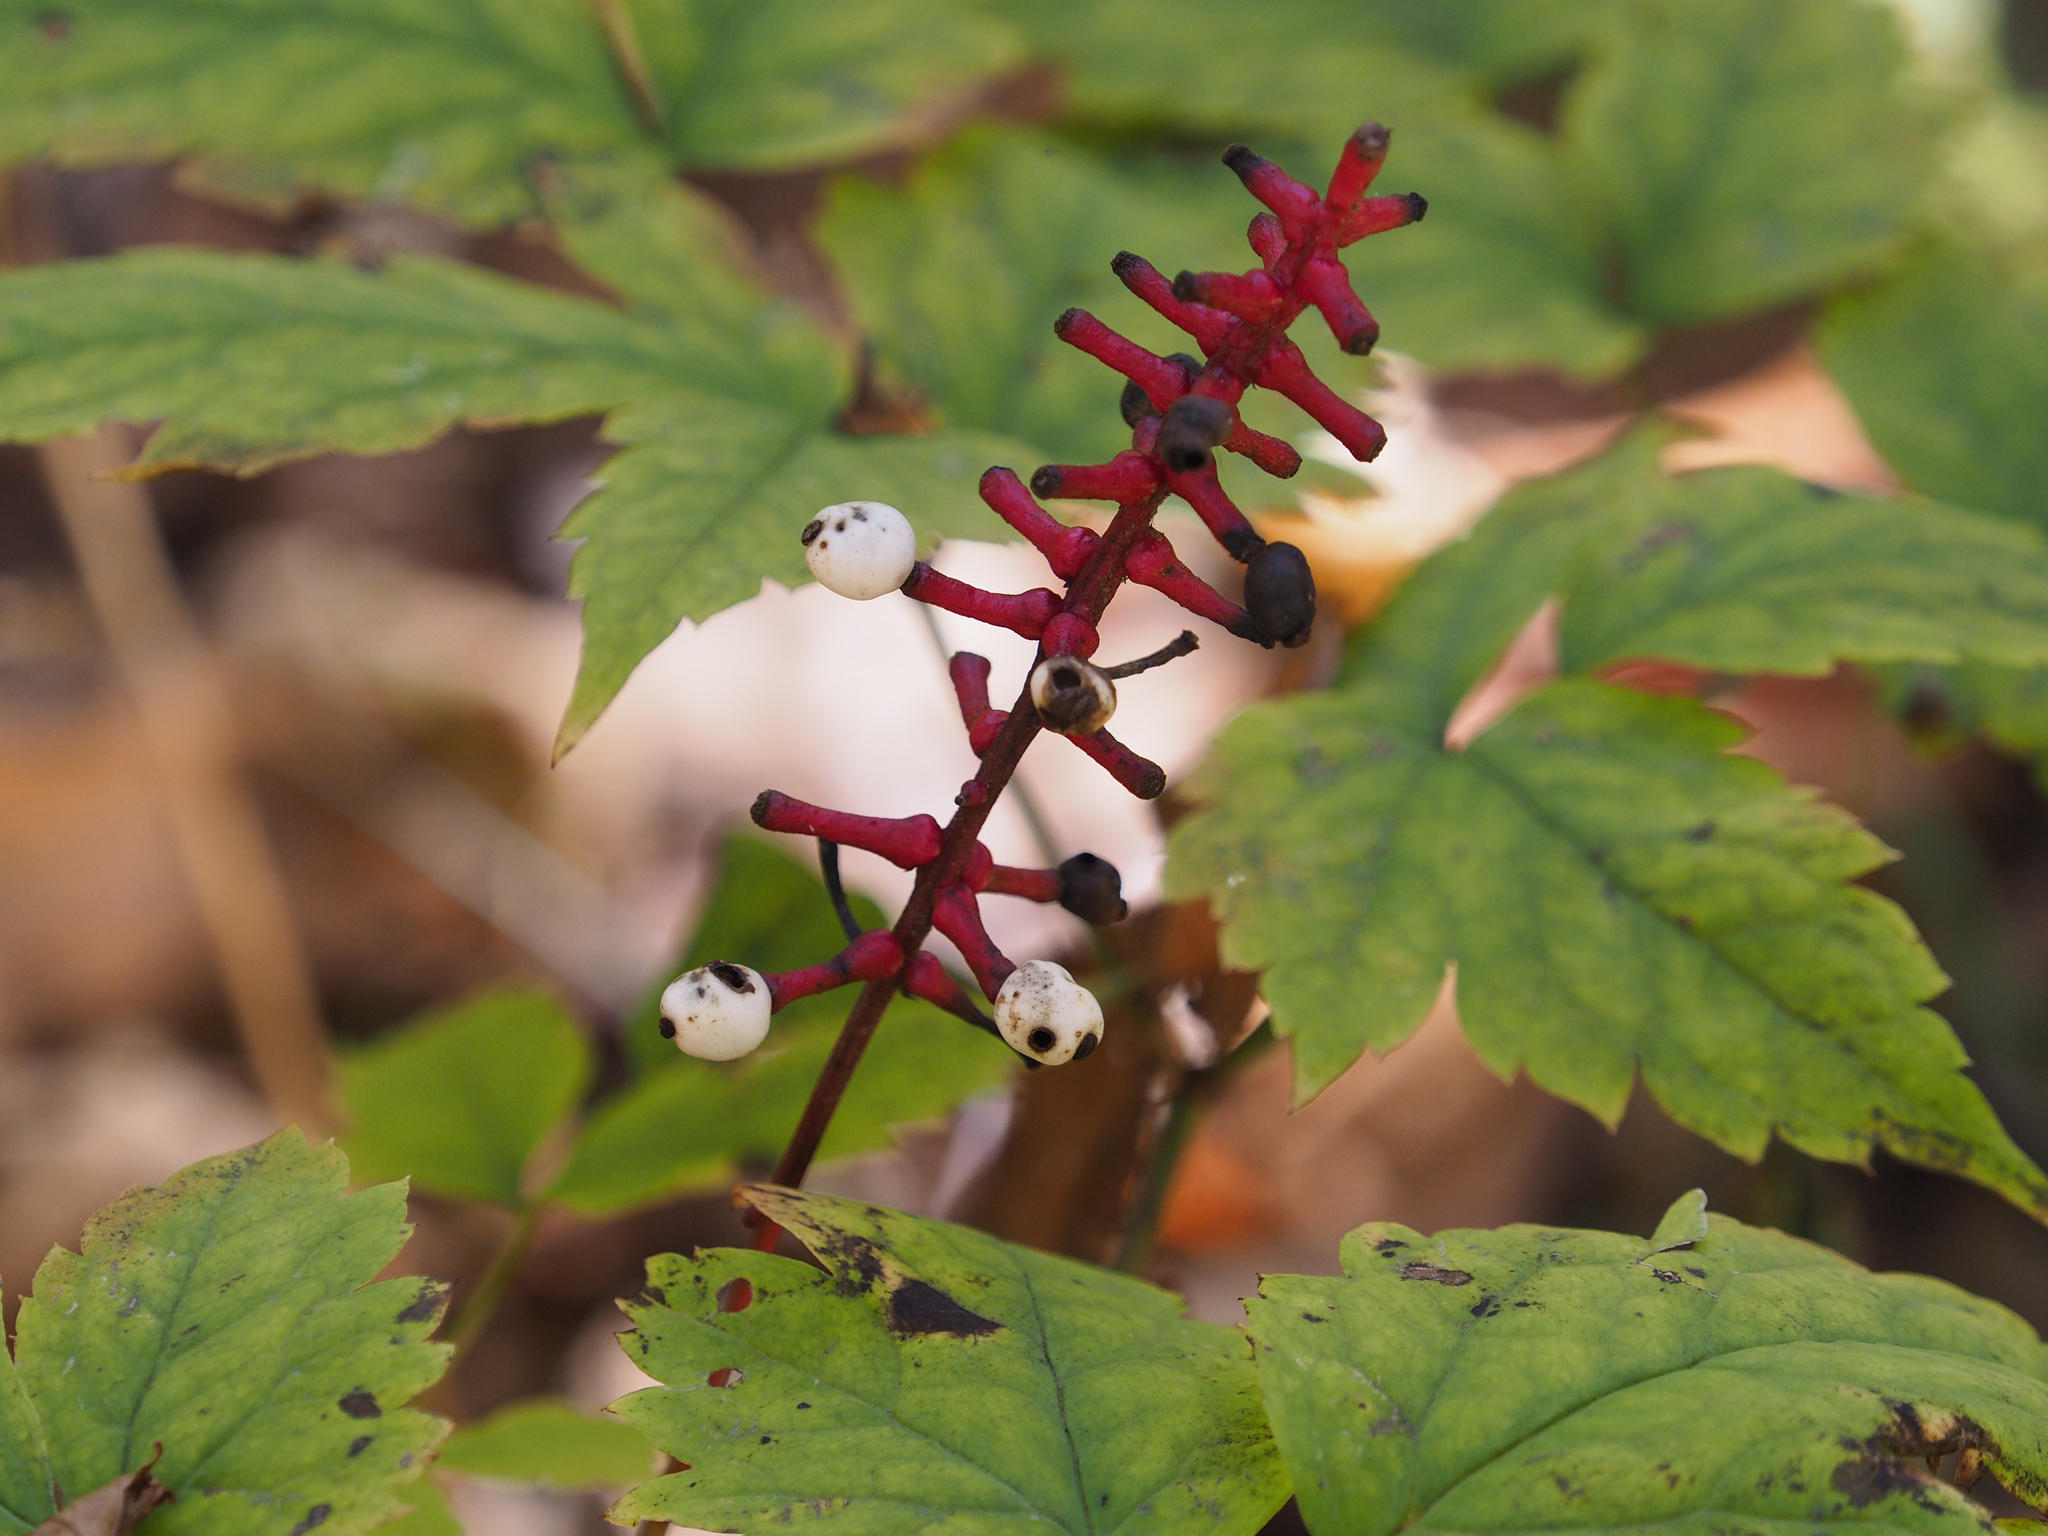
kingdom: Plantae
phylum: Tracheophyta
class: Magnoliopsida
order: Ranunculales
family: Ranunculaceae
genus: Actaea
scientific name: Actaea pachypoda
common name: Doll's-eyes
